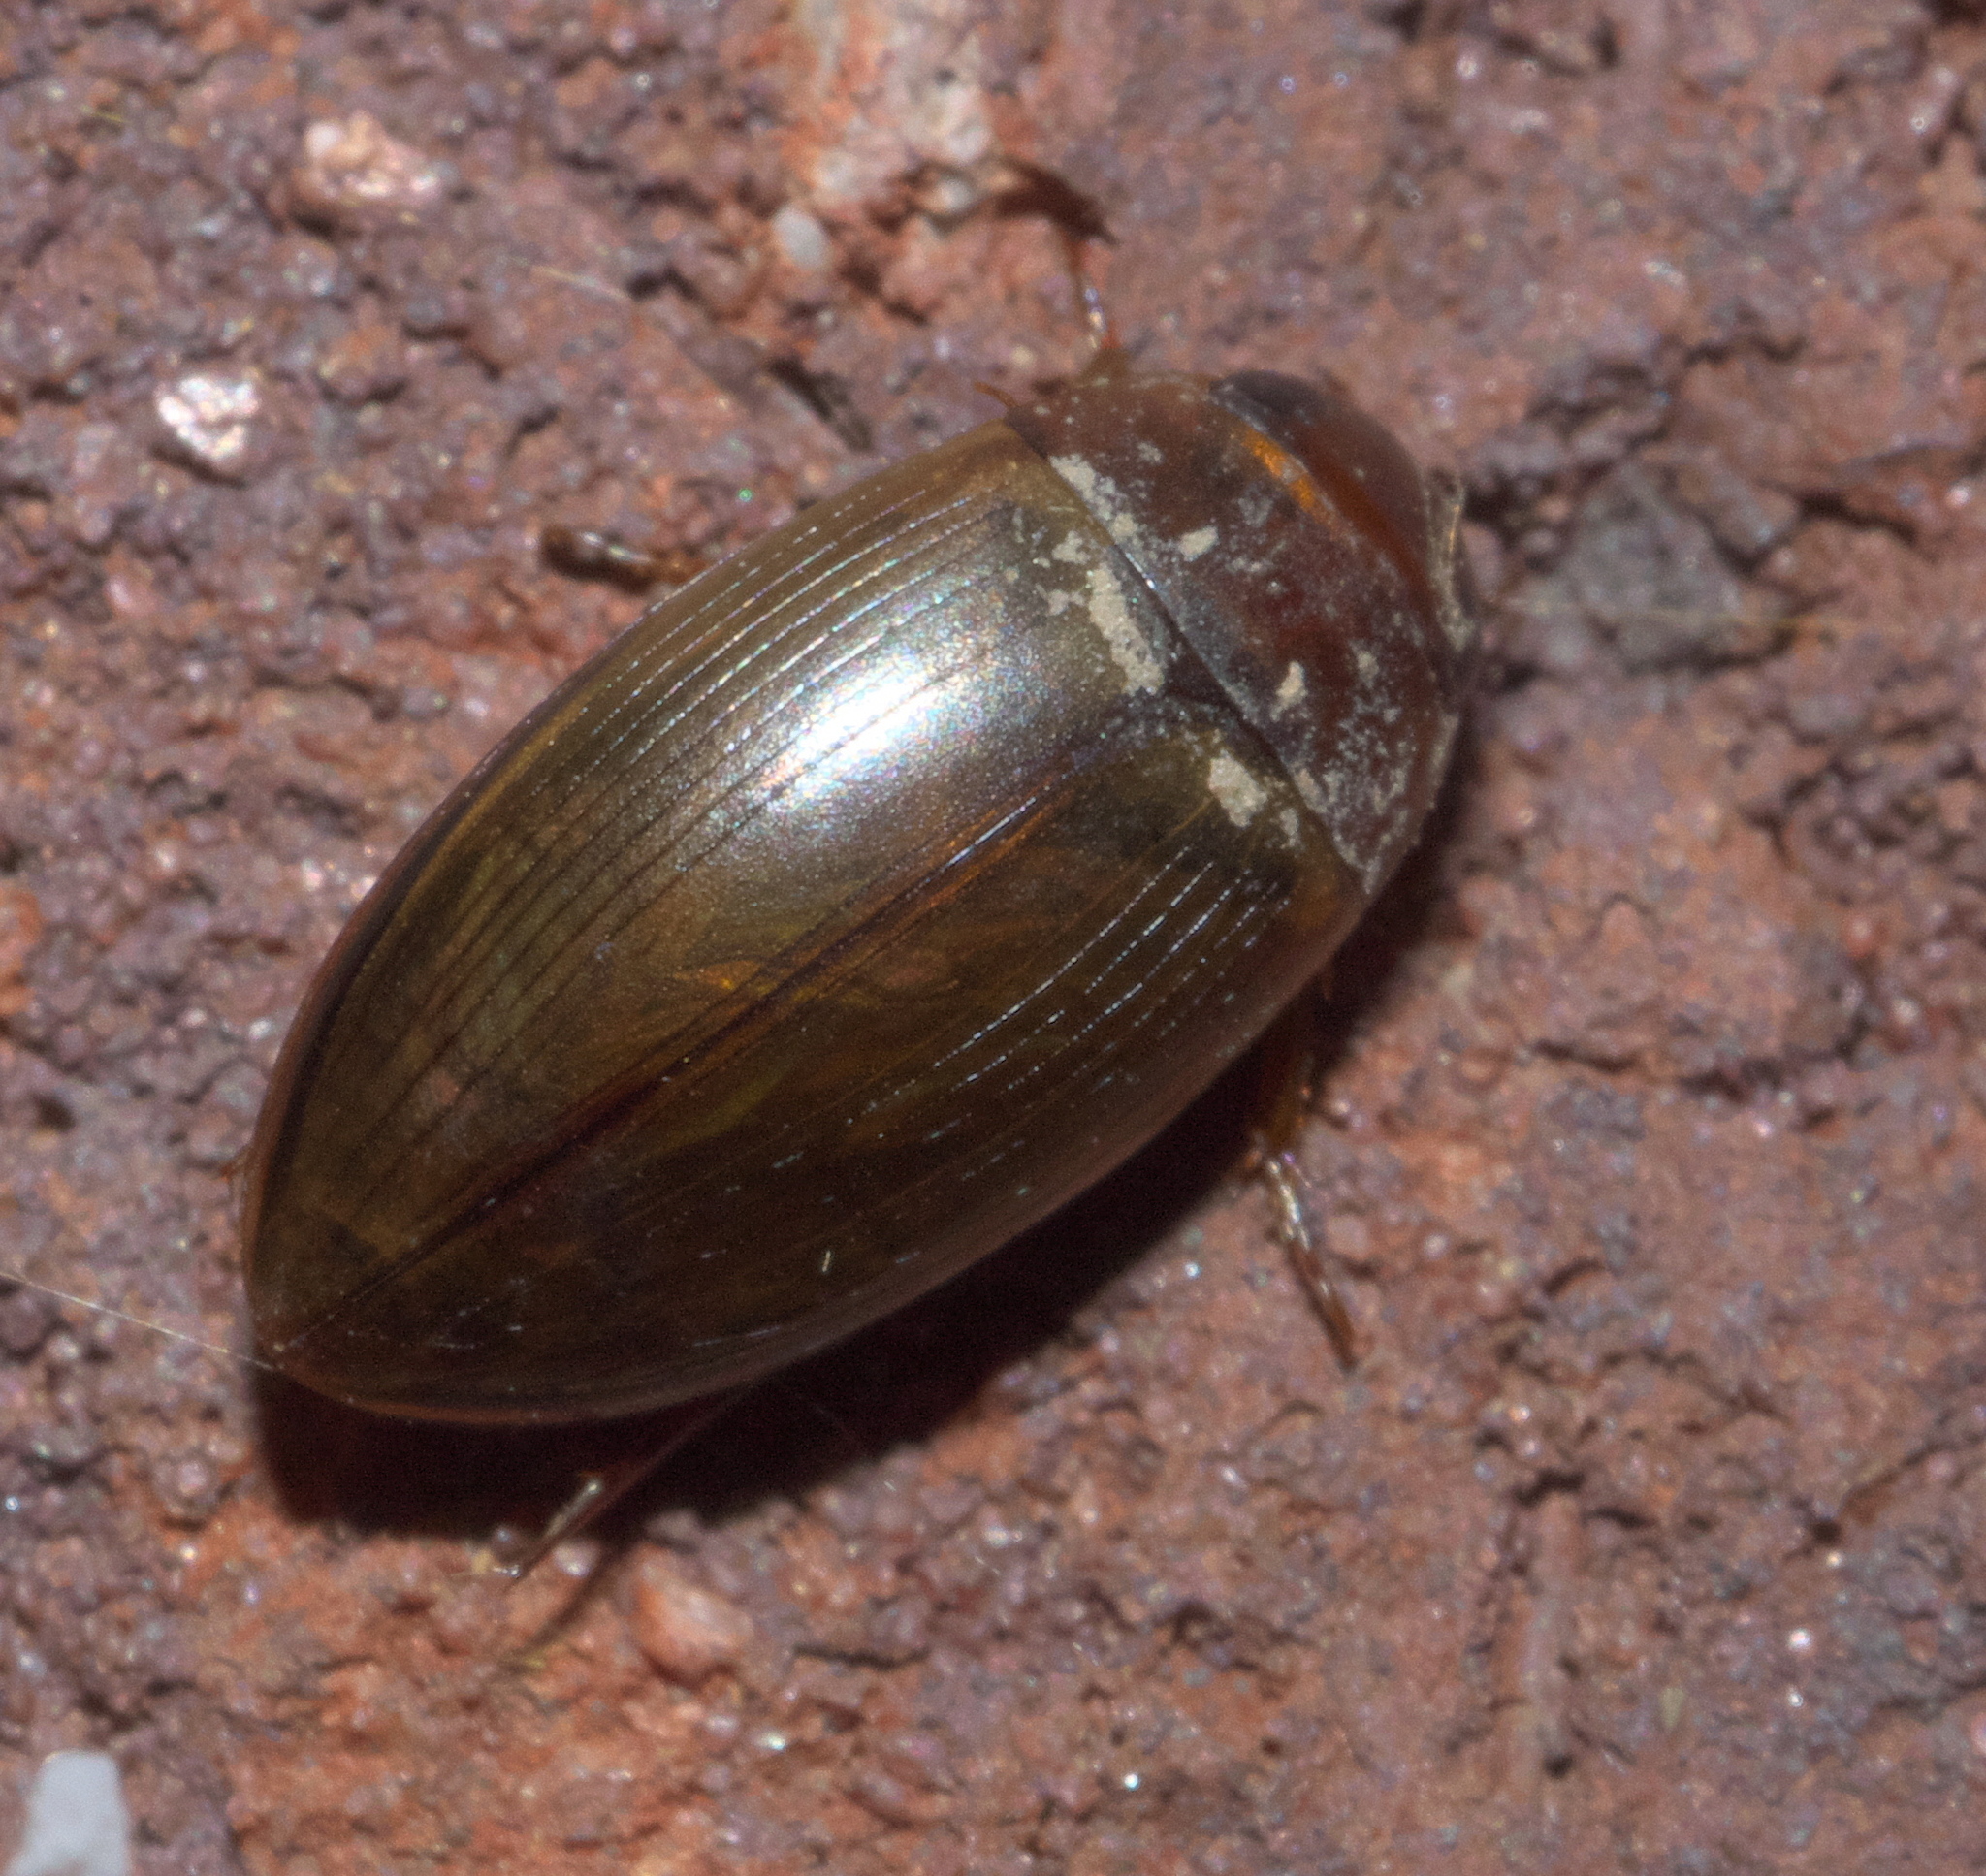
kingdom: Animalia
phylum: Arthropoda
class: Insecta
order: Coleoptera
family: Dytiscidae
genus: Copelatus
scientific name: Copelatus chevrolati
